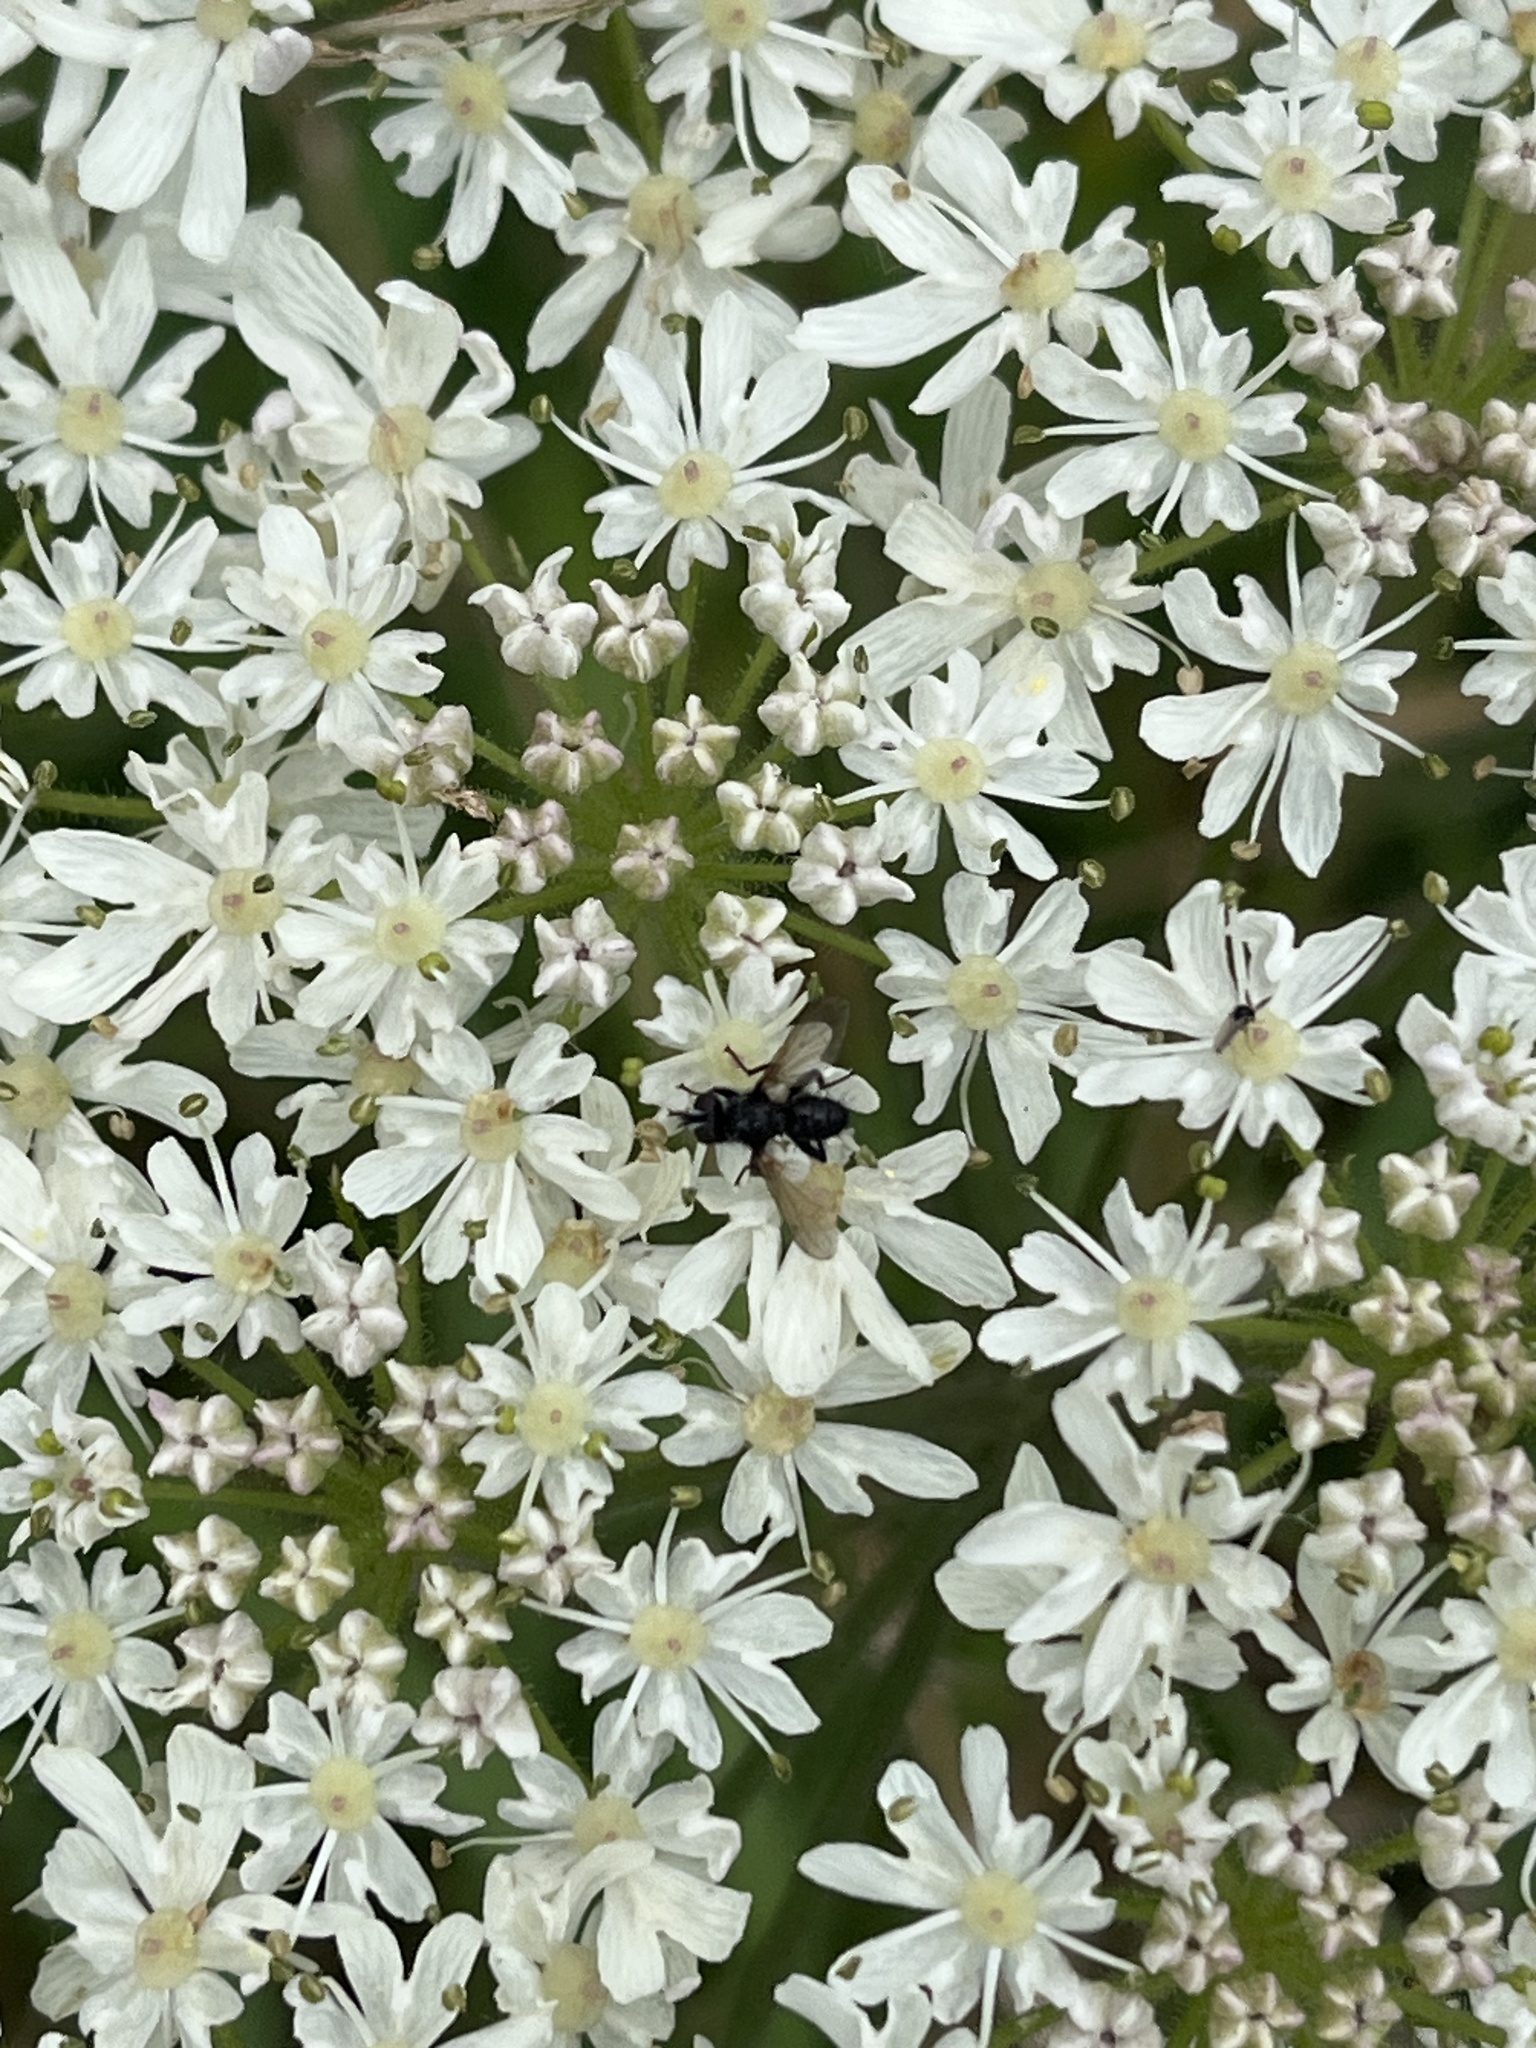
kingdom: Animalia
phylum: Arthropoda
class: Insecta
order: Diptera
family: Tachinidae
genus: Phania
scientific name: Phania funesta
